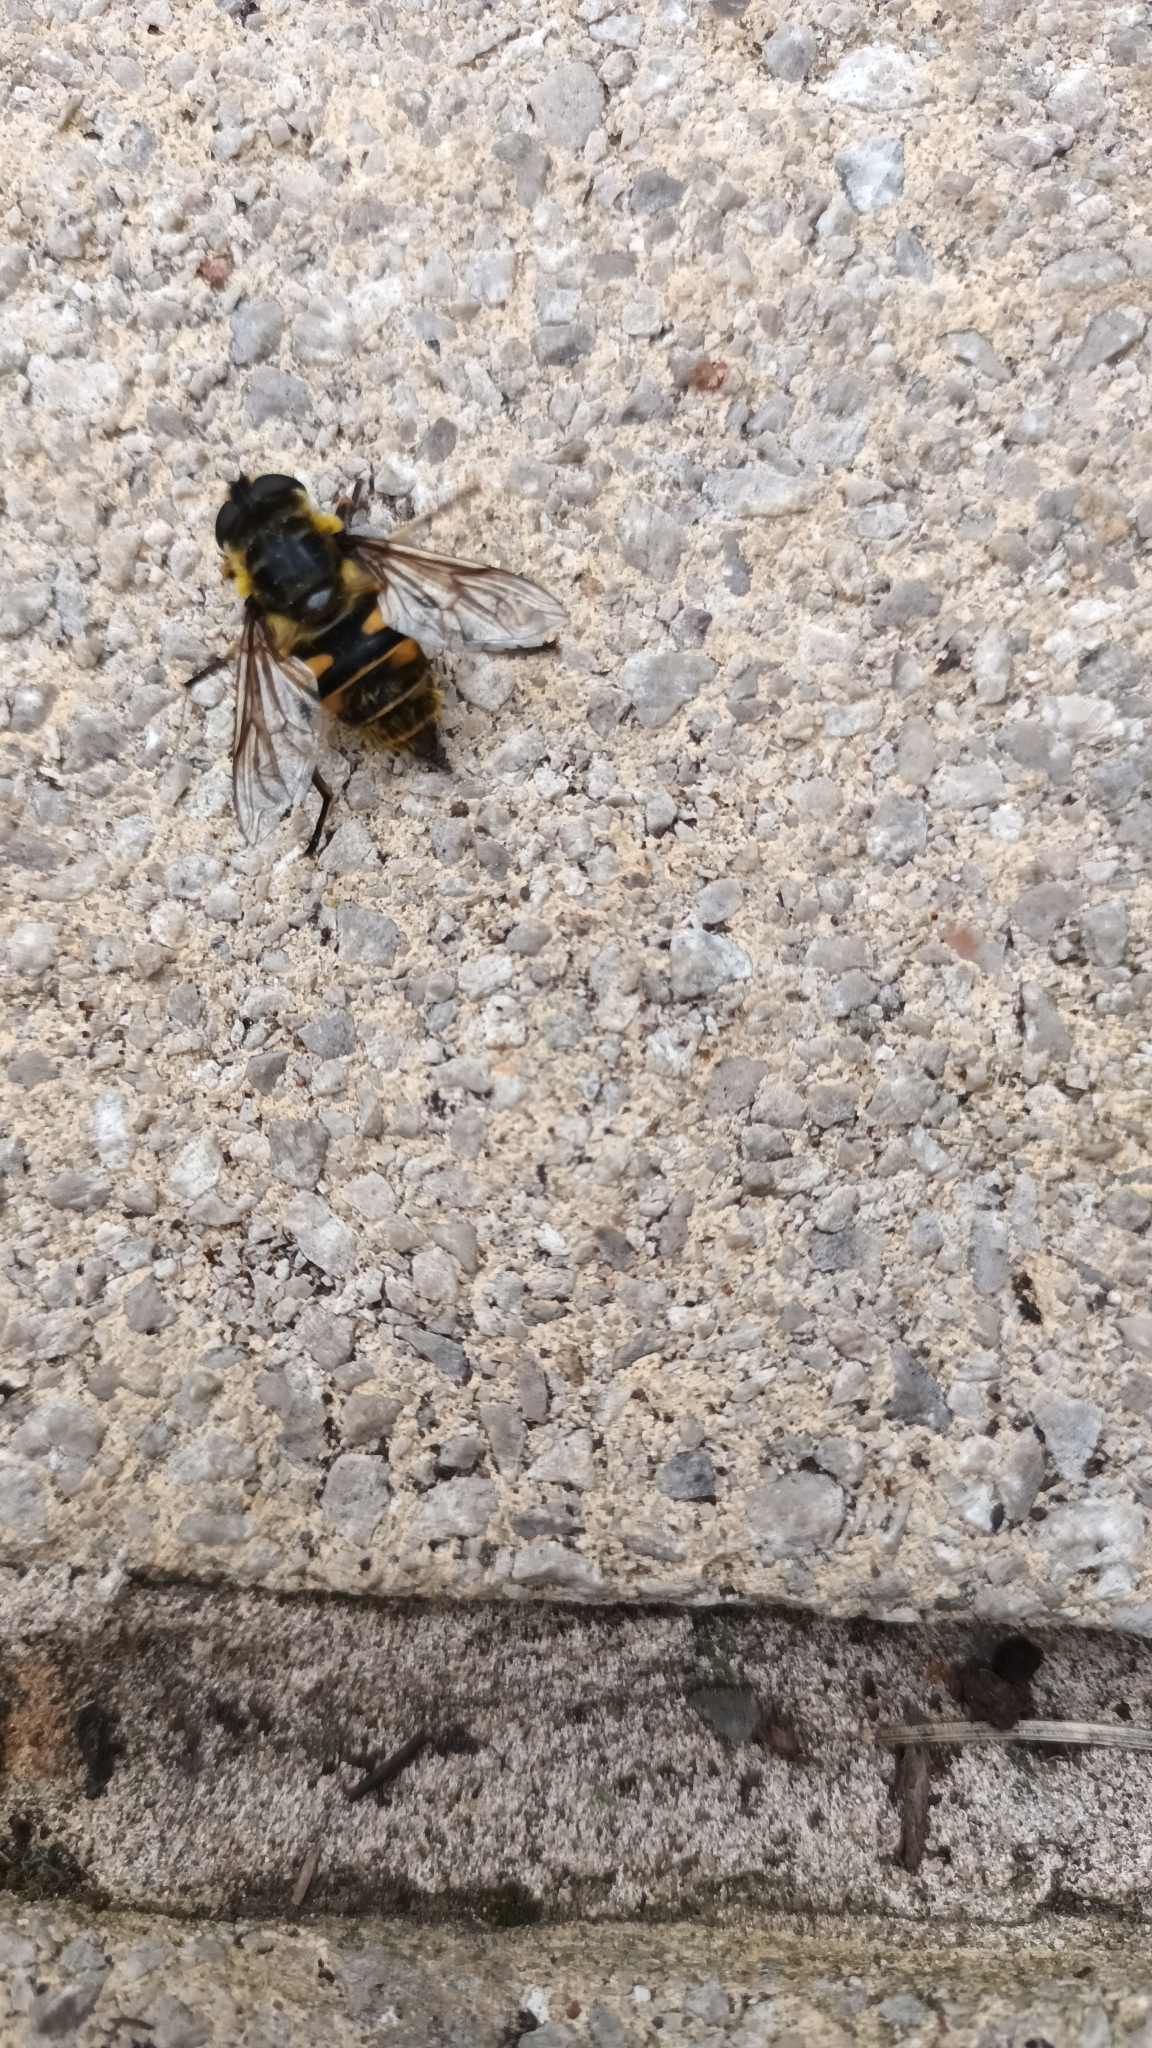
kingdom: Animalia
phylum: Arthropoda
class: Insecta
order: Diptera
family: Syrphidae
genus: Myathropa
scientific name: Myathropa florea
